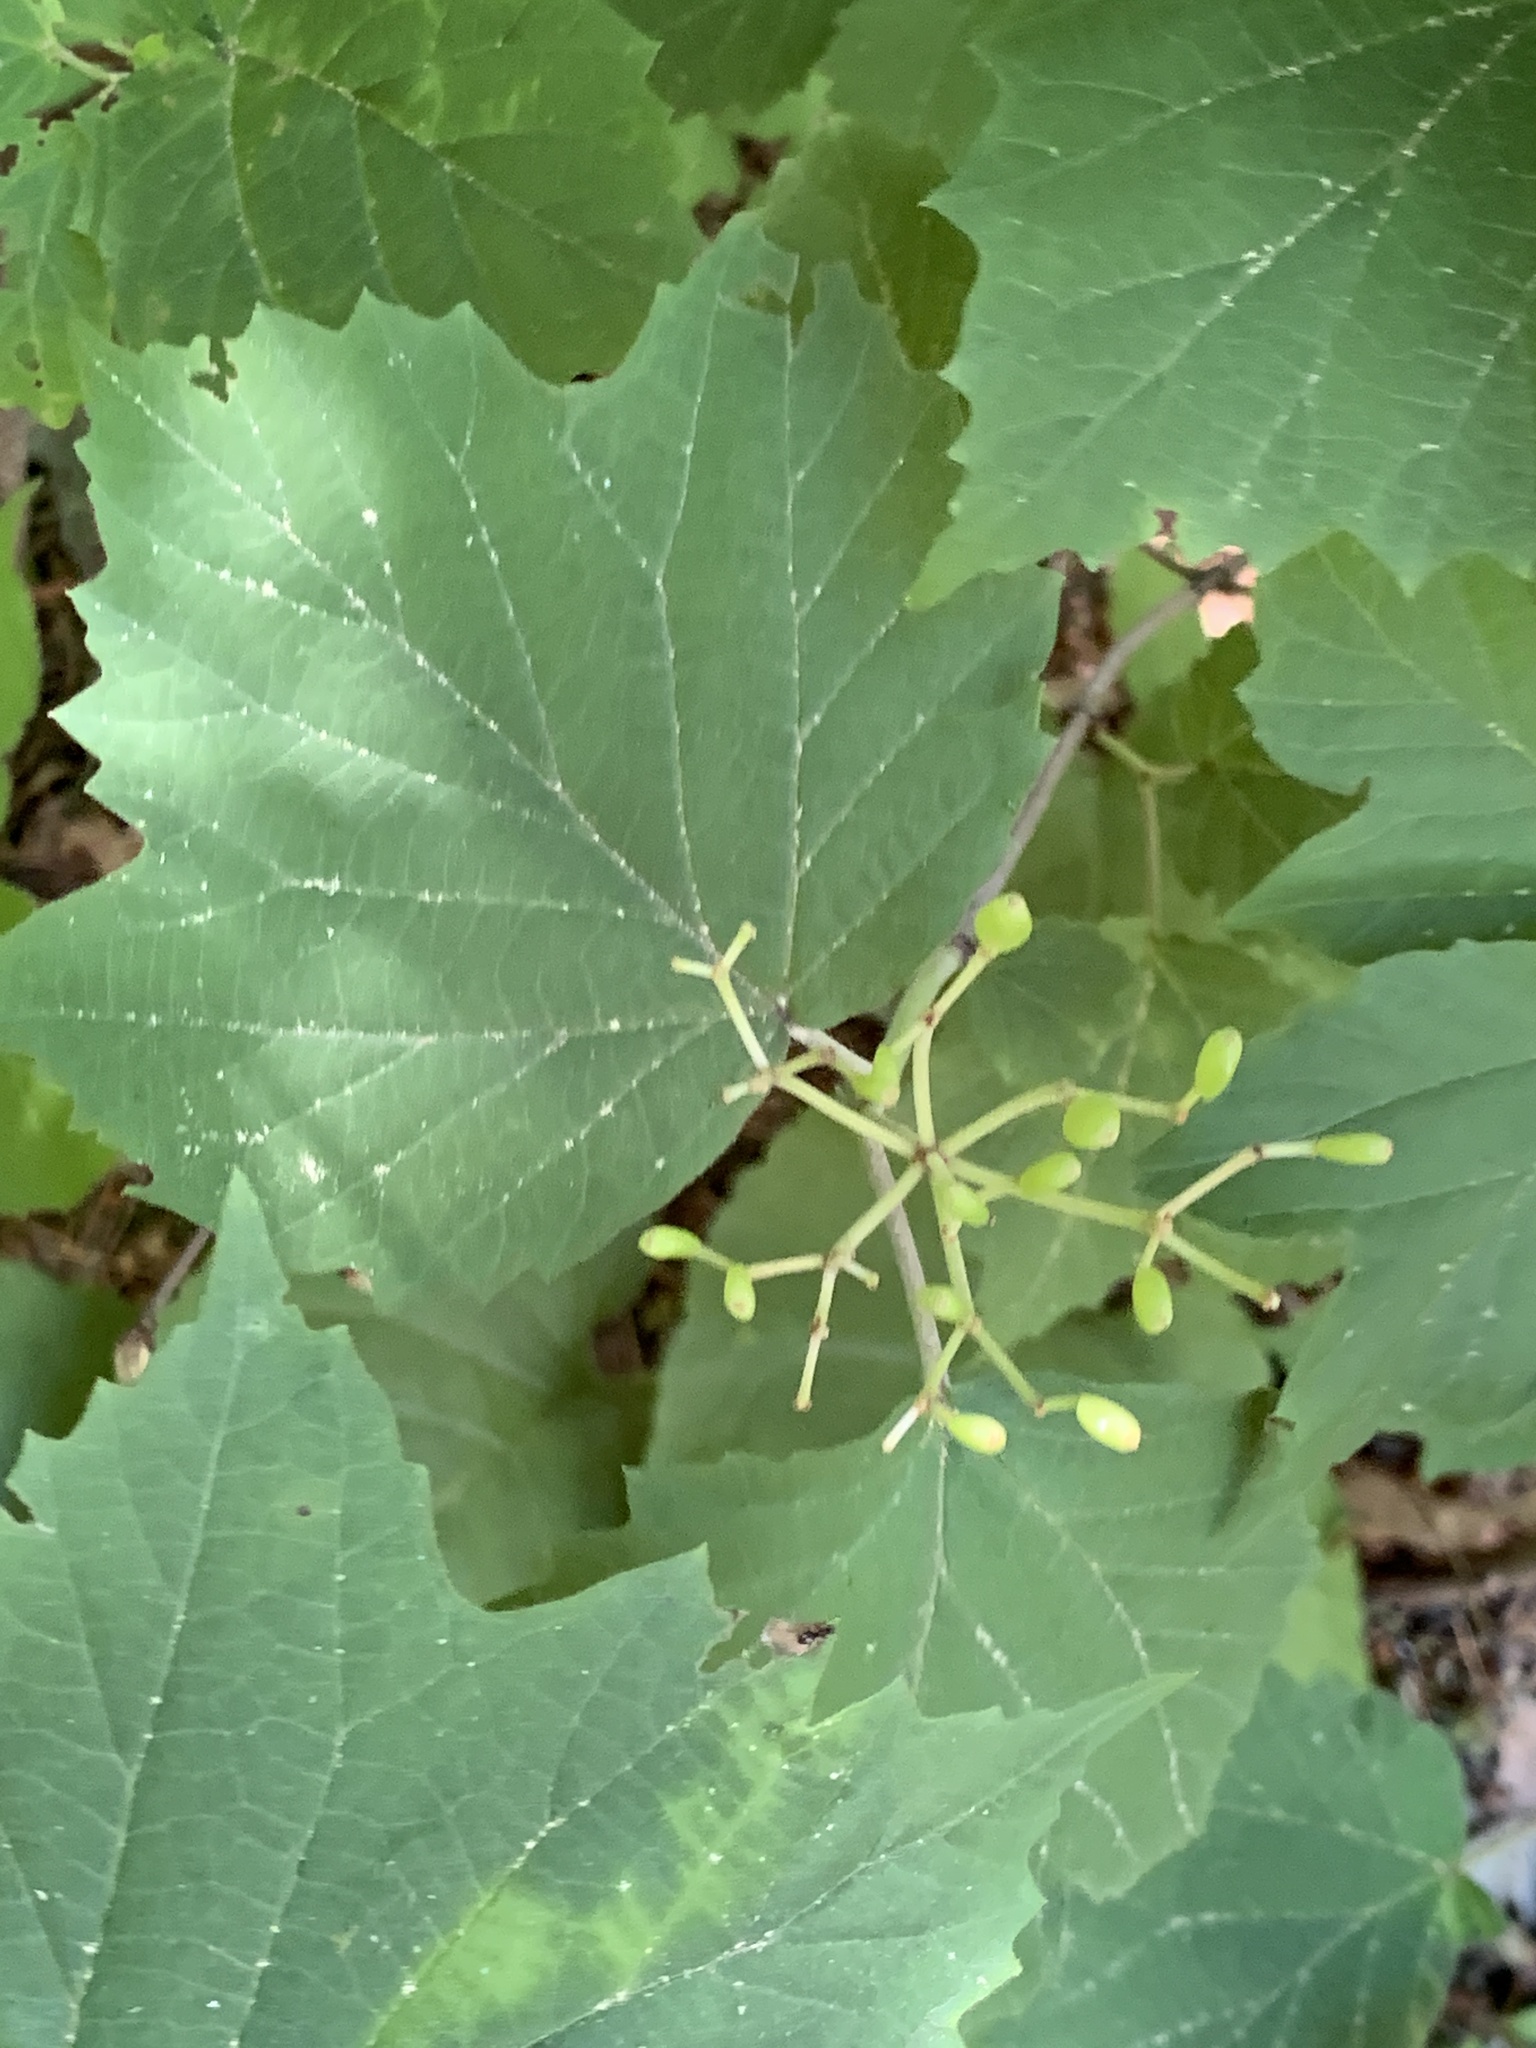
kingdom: Plantae
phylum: Tracheophyta
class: Magnoliopsida
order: Dipsacales
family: Viburnaceae
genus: Viburnum
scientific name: Viburnum acerifolium
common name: Dockmackie
